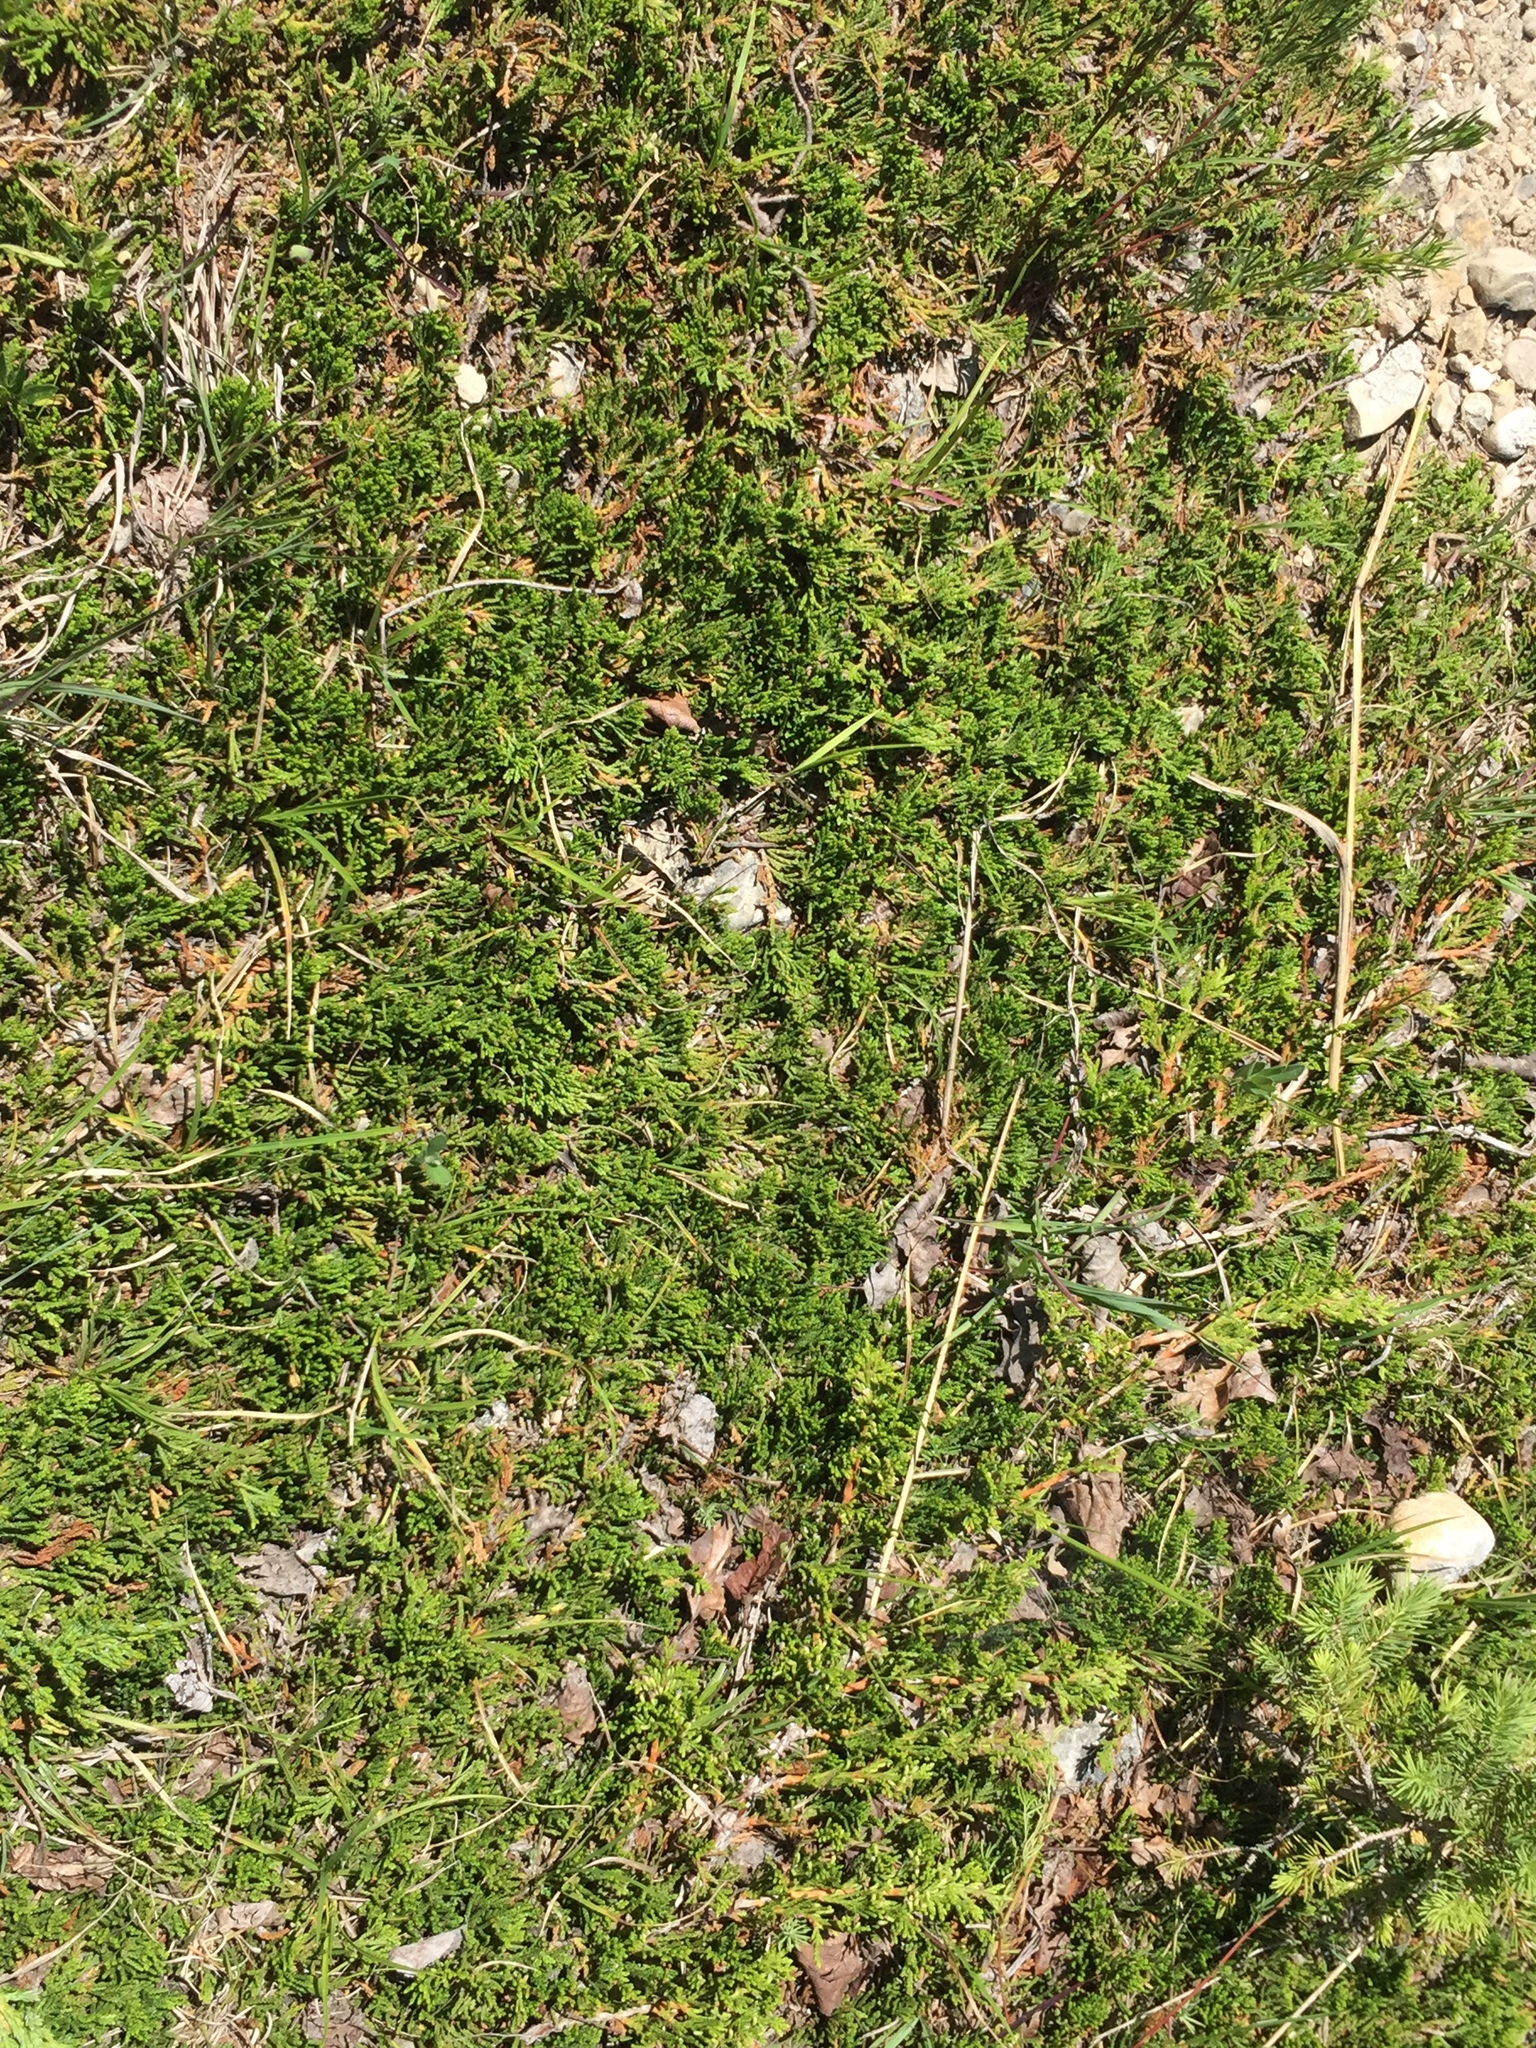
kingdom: Plantae
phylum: Tracheophyta
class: Pinopsida
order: Pinales
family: Cupressaceae
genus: Juniperus
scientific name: Juniperus horizontalis
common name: Creeping juniper
